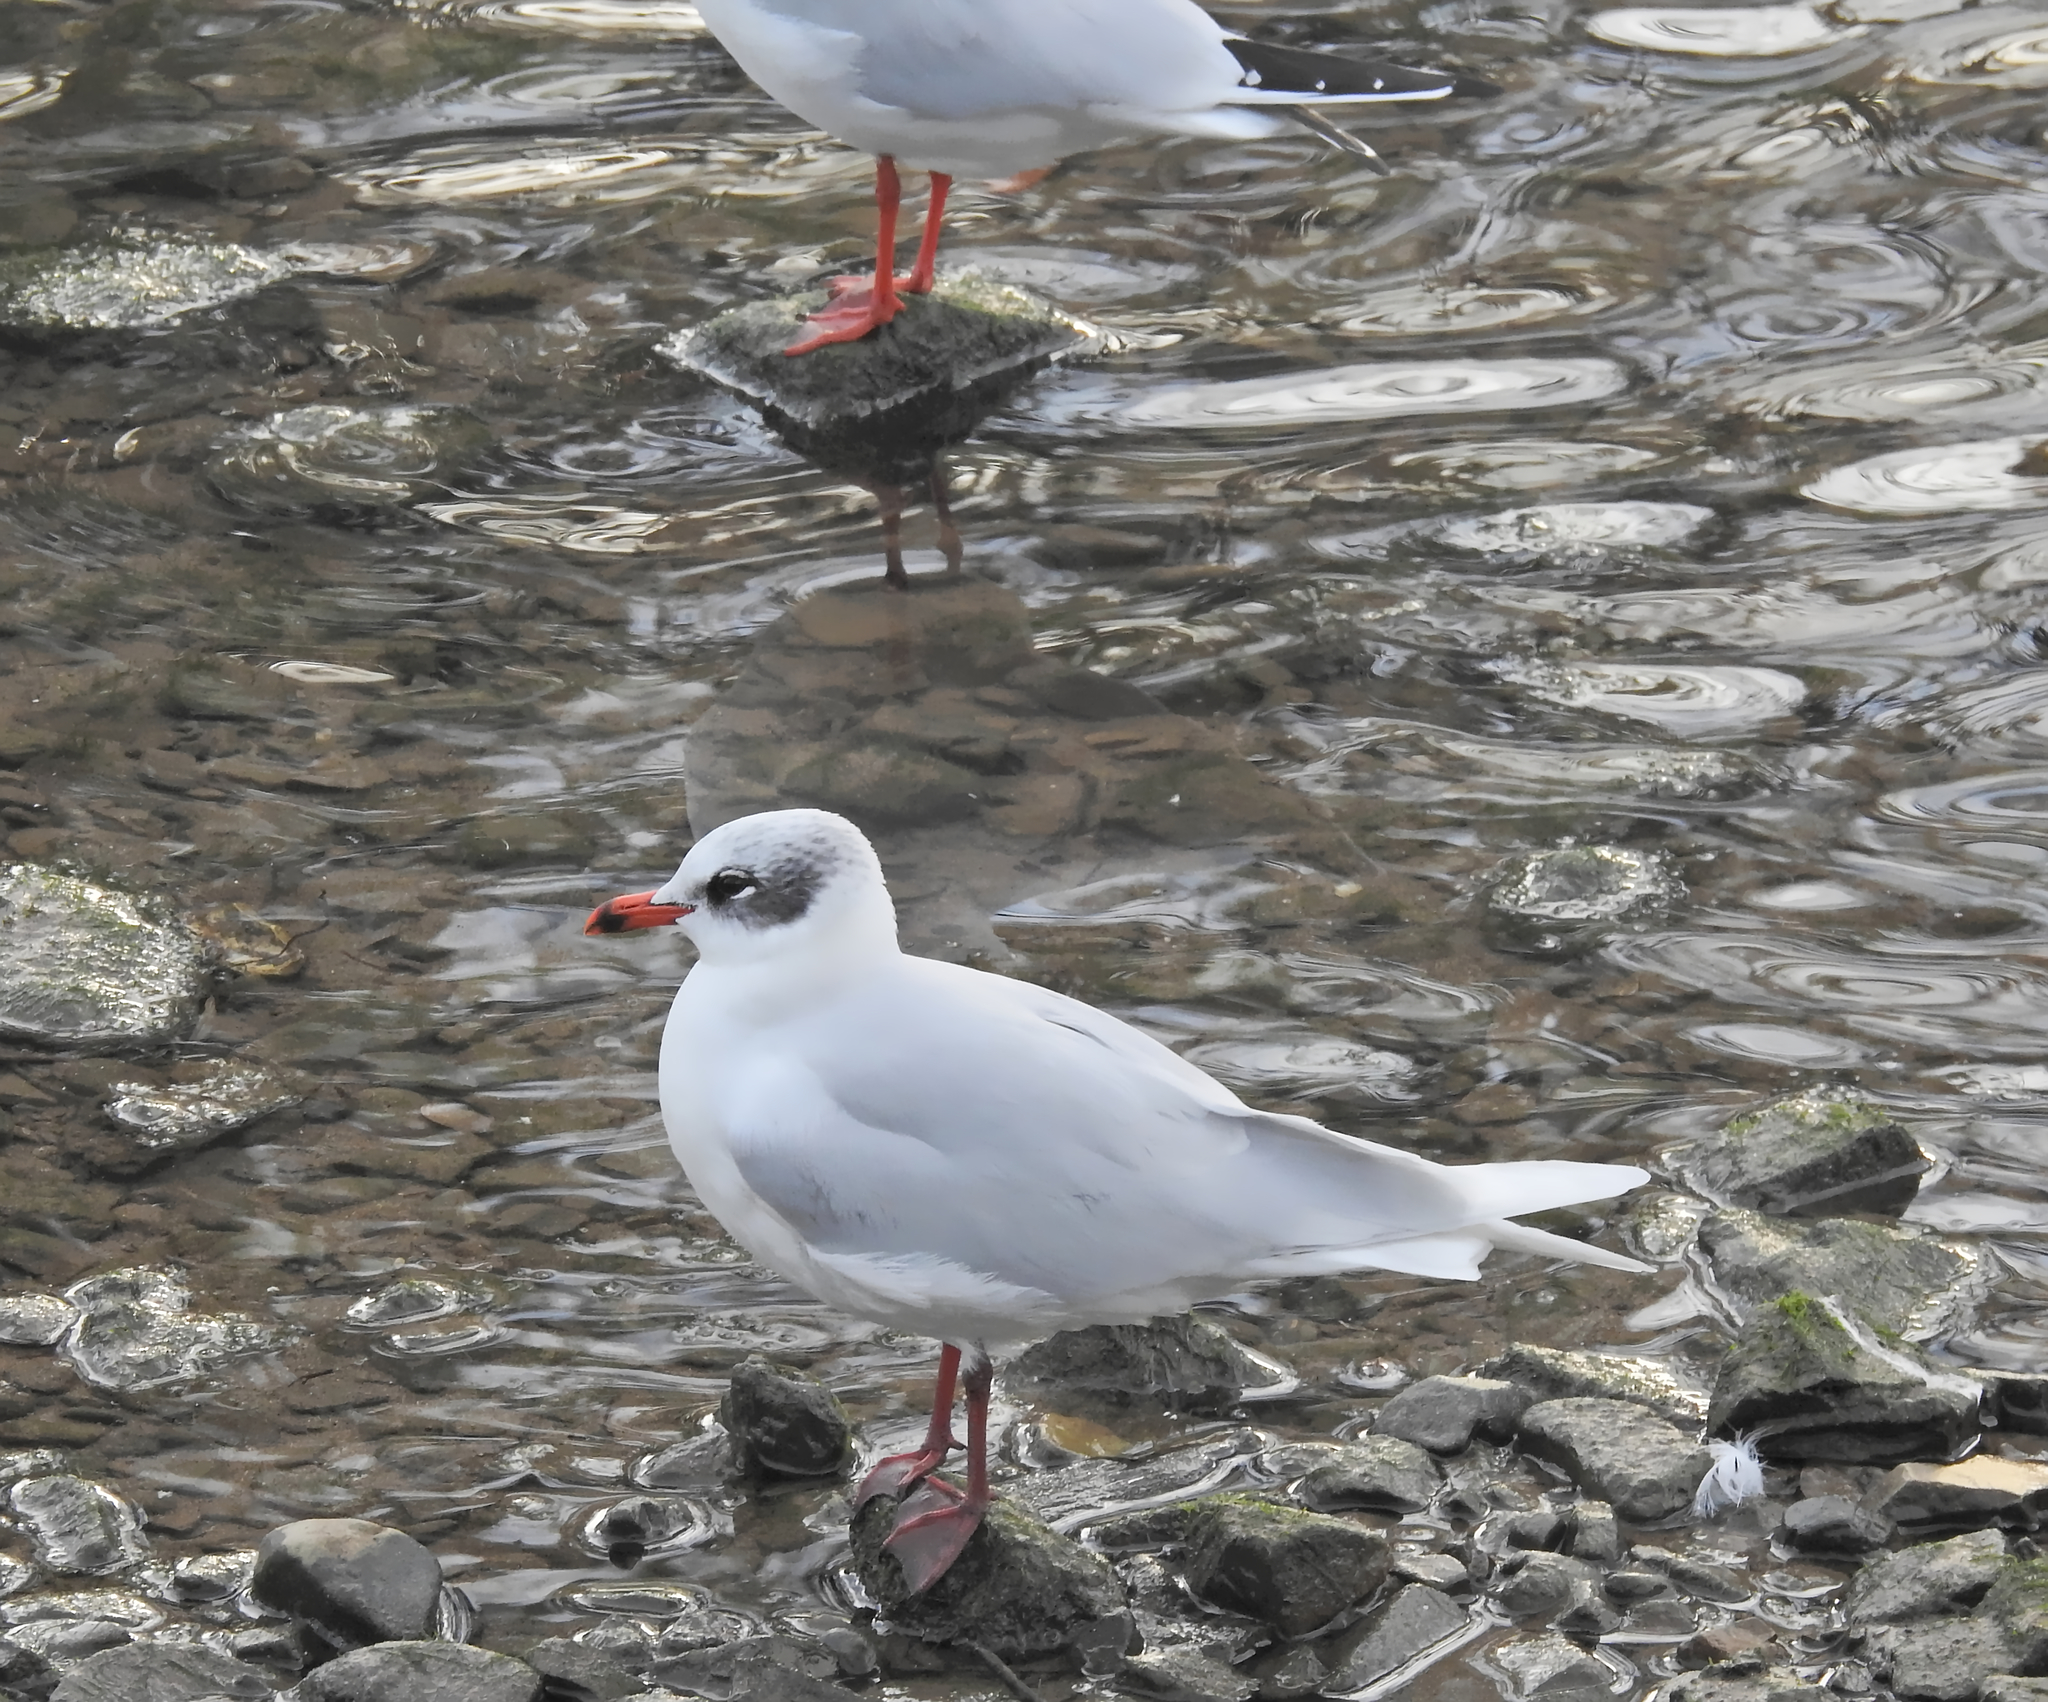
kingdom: Animalia
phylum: Chordata
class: Aves
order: Charadriiformes
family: Laridae
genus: Ichthyaetus
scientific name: Ichthyaetus melanocephalus
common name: Mediterranean gull
